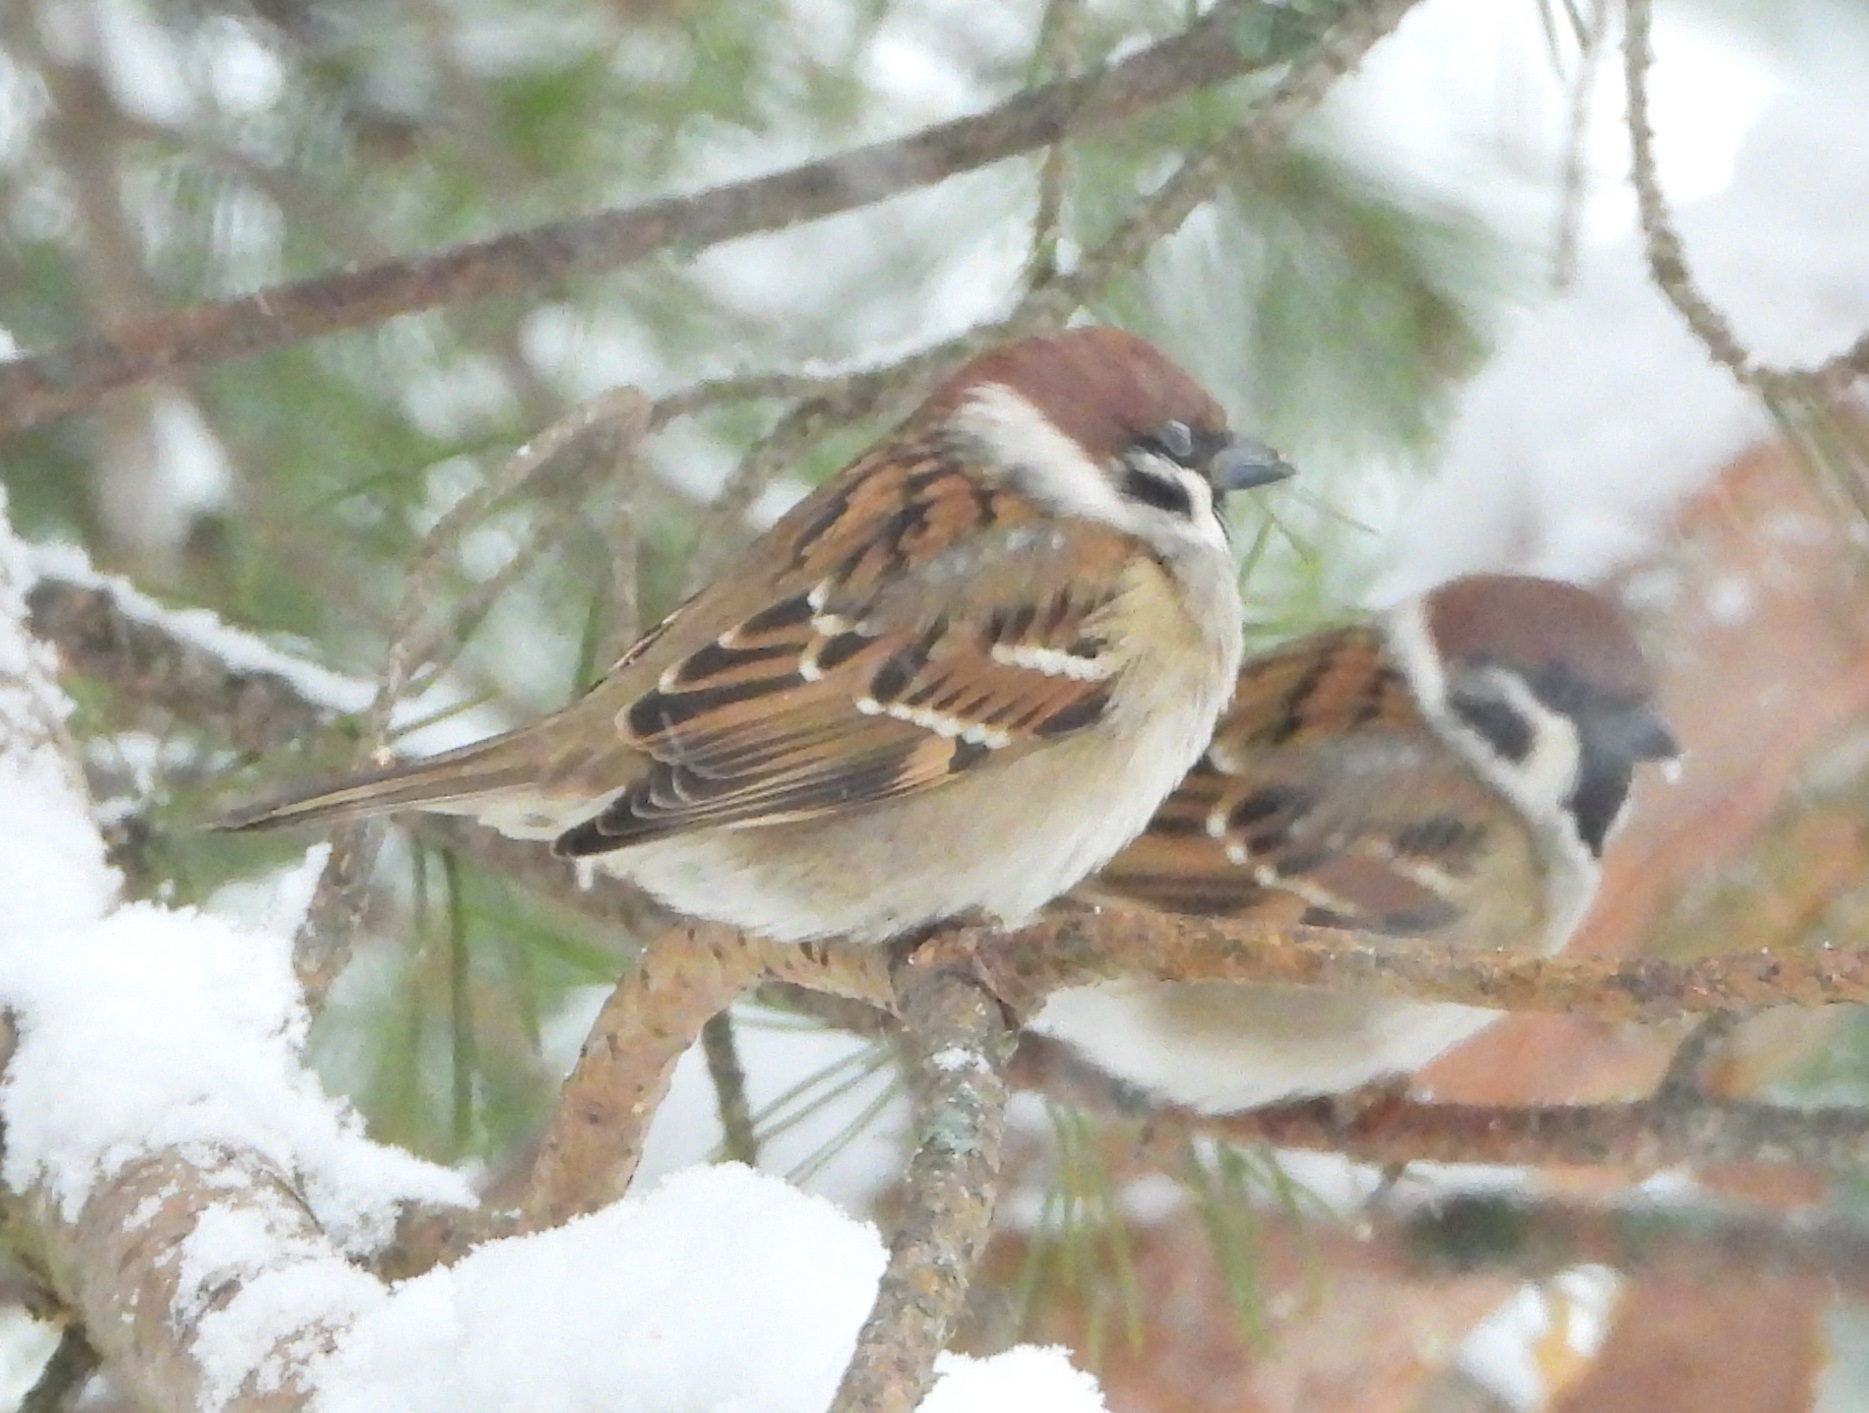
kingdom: Animalia
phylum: Chordata
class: Aves
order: Passeriformes
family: Passeridae
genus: Passer
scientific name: Passer montanus
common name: Eurasian tree sparrow
